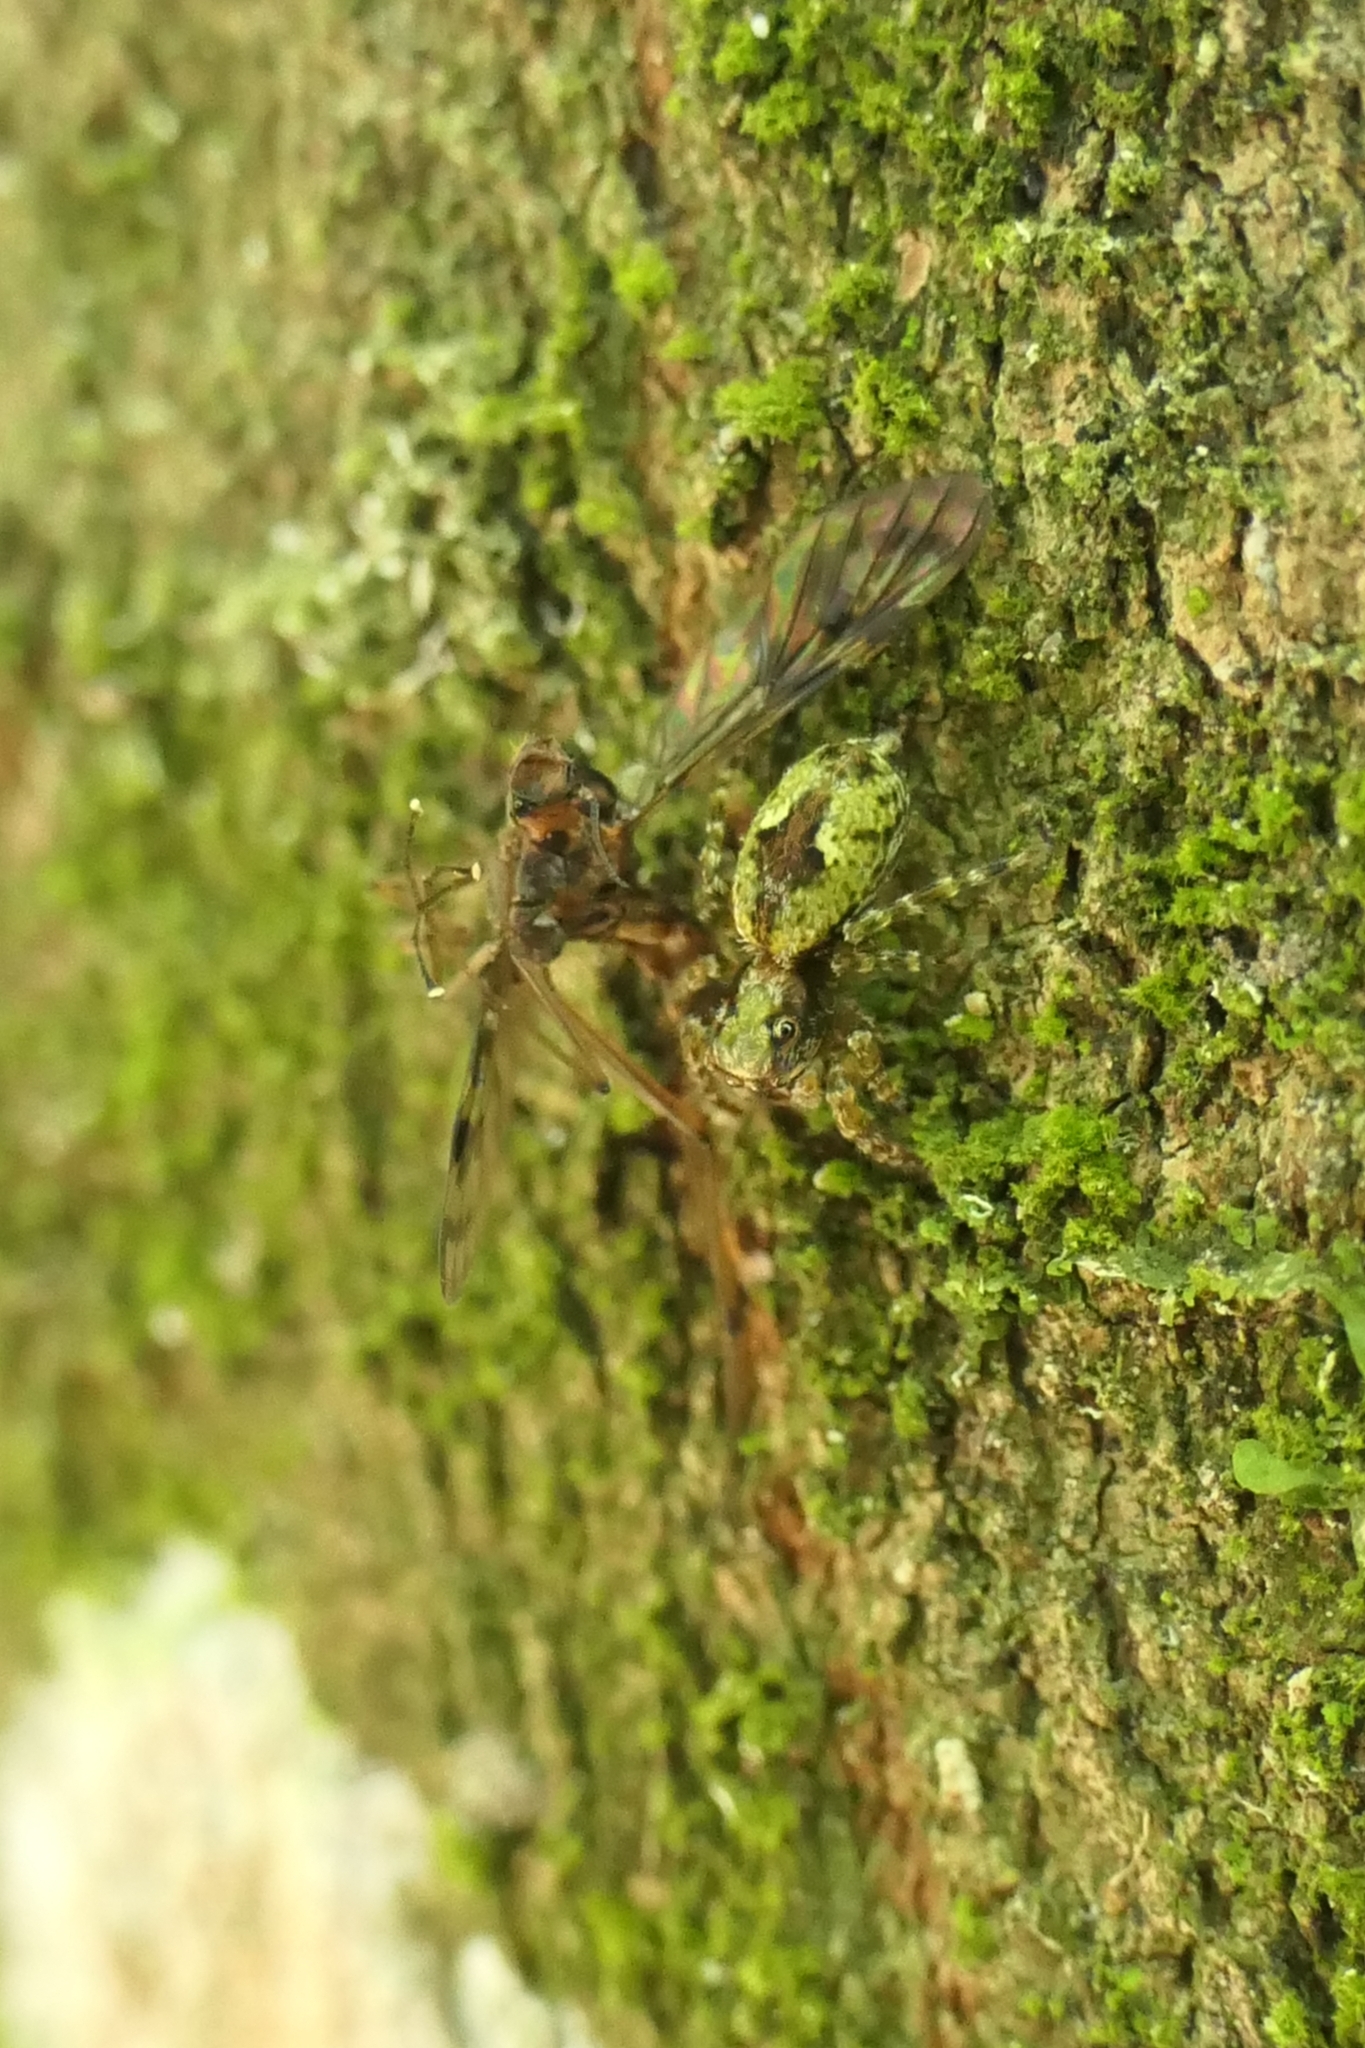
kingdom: Animalia
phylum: Arthropoda
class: Arachnida
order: Araneae
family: Salticidae
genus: Hinewaia
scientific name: Hinewaia embolica
